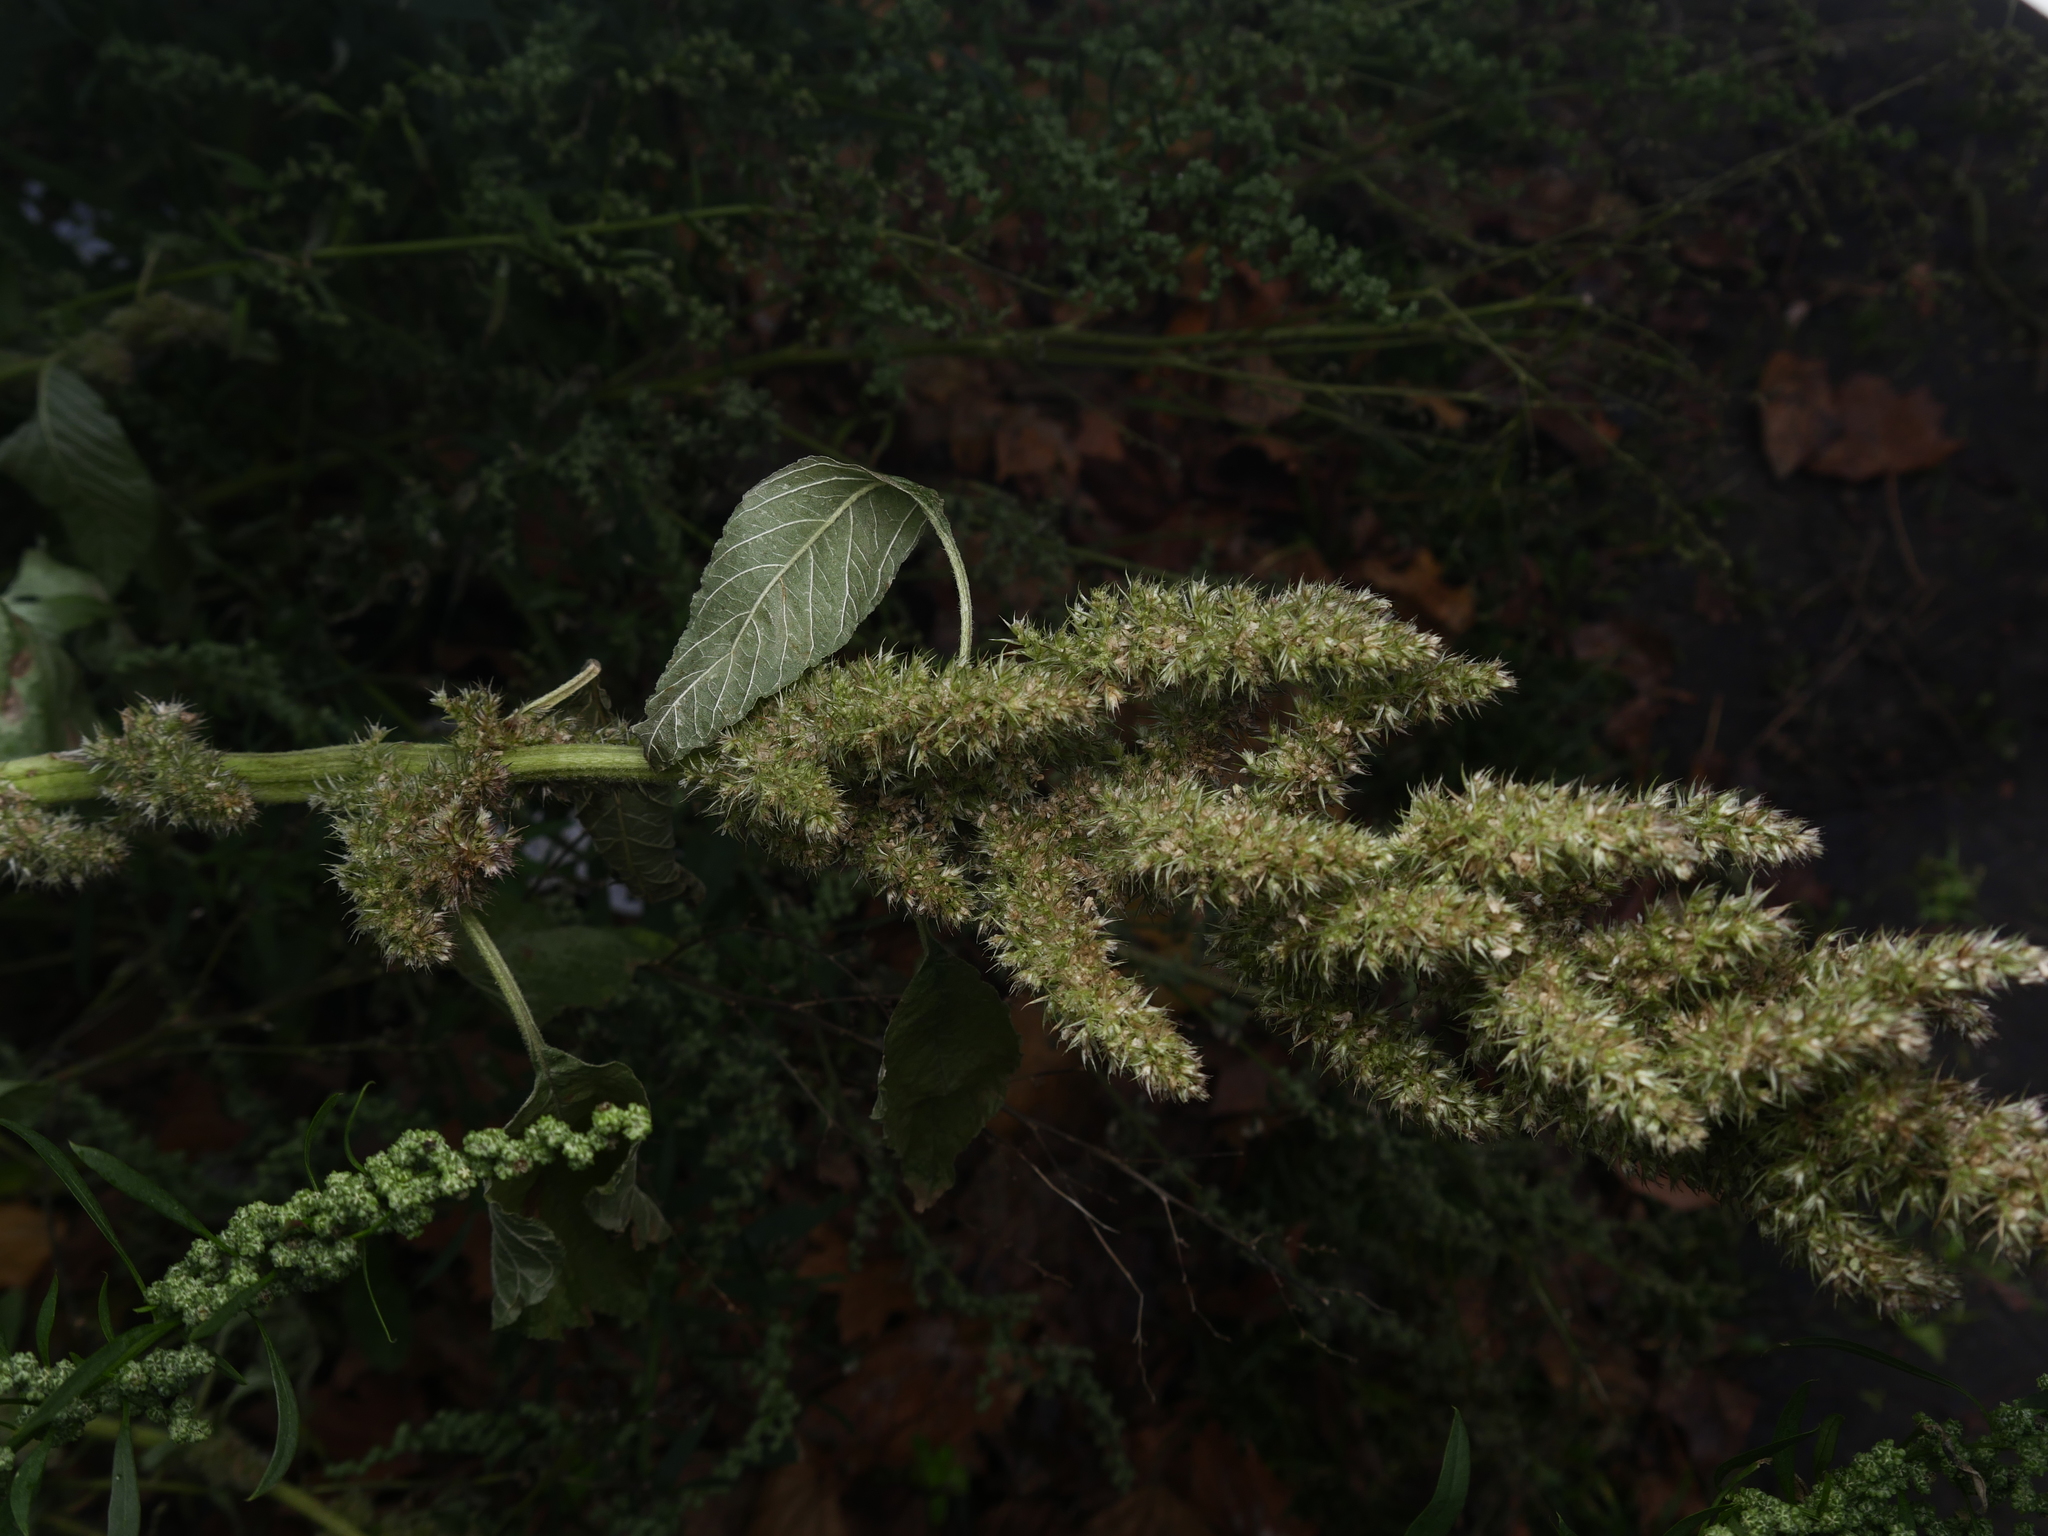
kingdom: Plantae
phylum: Tracheophyta
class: Magnoliopsida
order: Caryophyllales
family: Amaranthaceae
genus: Amaranthus
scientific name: Amaranthus retroflexus
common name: Redroot amaranth
